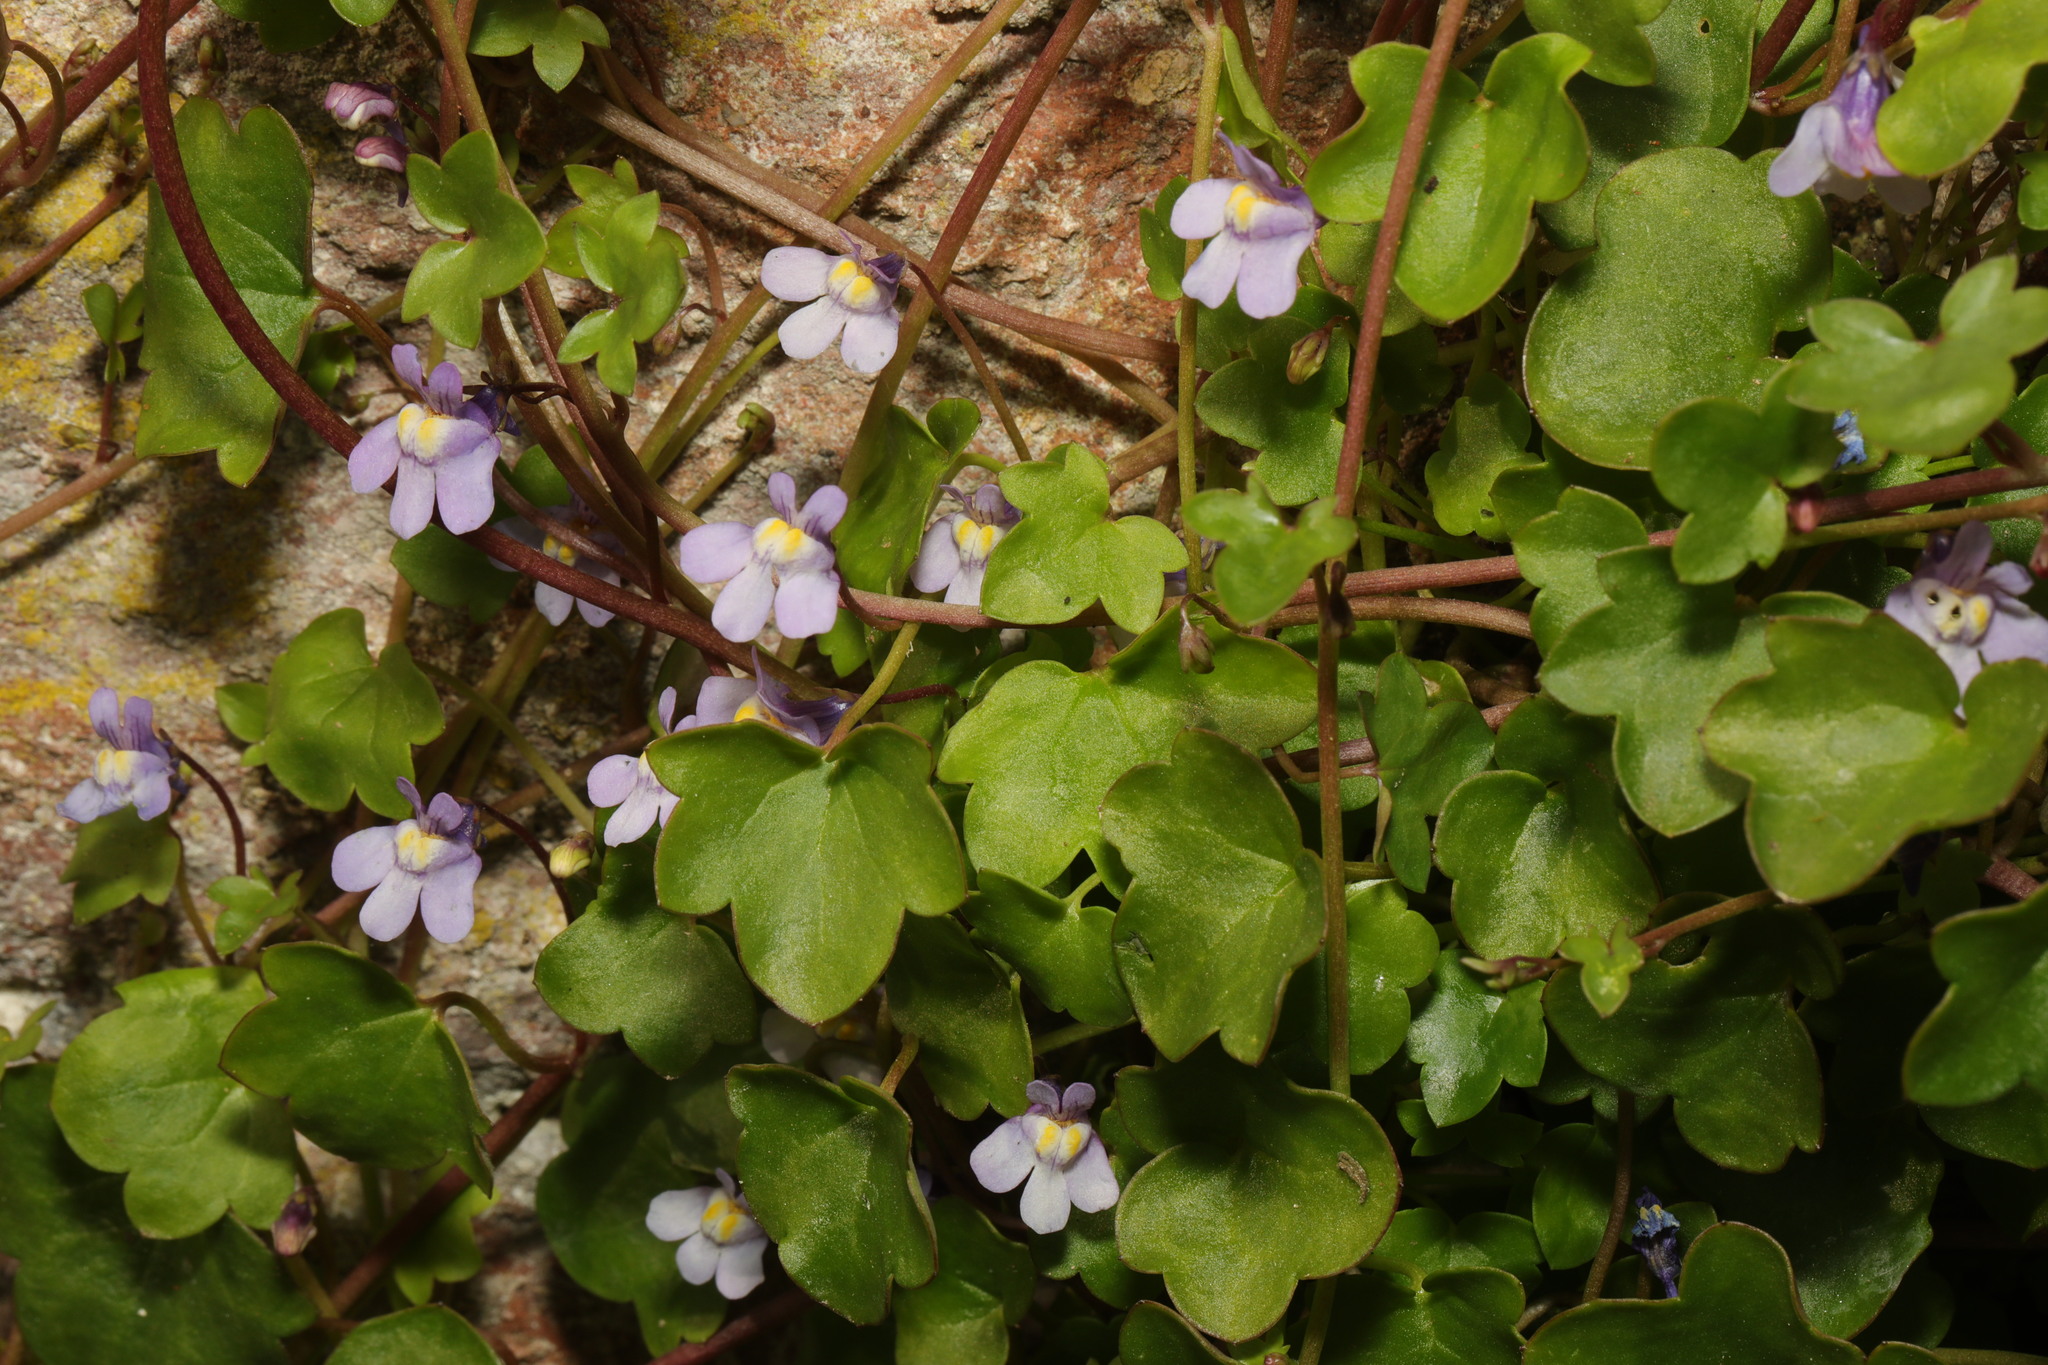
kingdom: Plantae
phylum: Tracheophyta
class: Magnoliopsida
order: Lamiales
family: Plantaginaceae
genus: Cymbalaria
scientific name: Cymbalaria muralis
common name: Ivy-leaved toadflax
